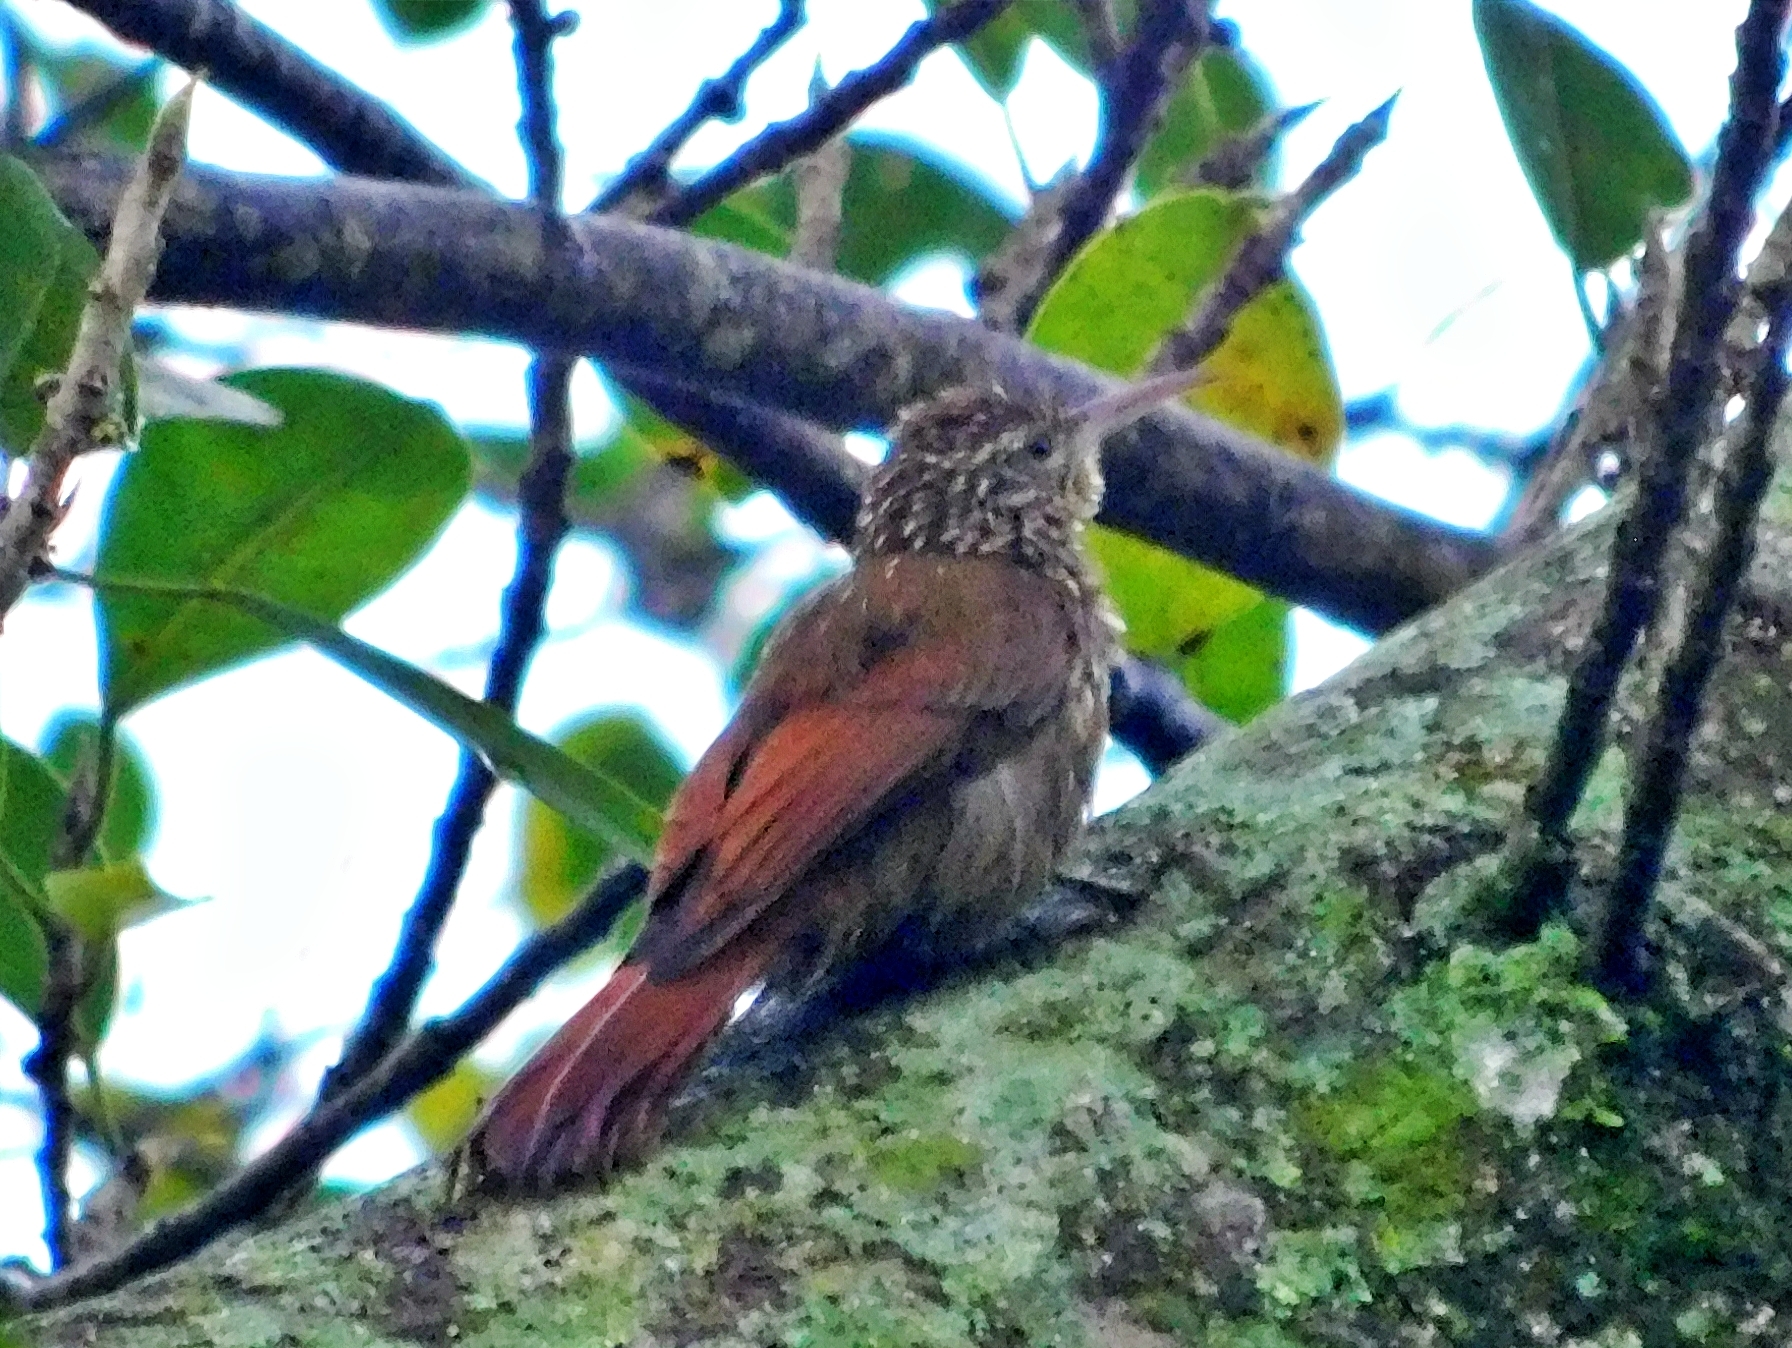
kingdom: Animalia
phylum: Chordata
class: Aves
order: Passeriformes
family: Furnariidae
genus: Lepidocolaptes
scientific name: Lepidocolaptes souleyetii
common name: Streak-headed woodcreeper
